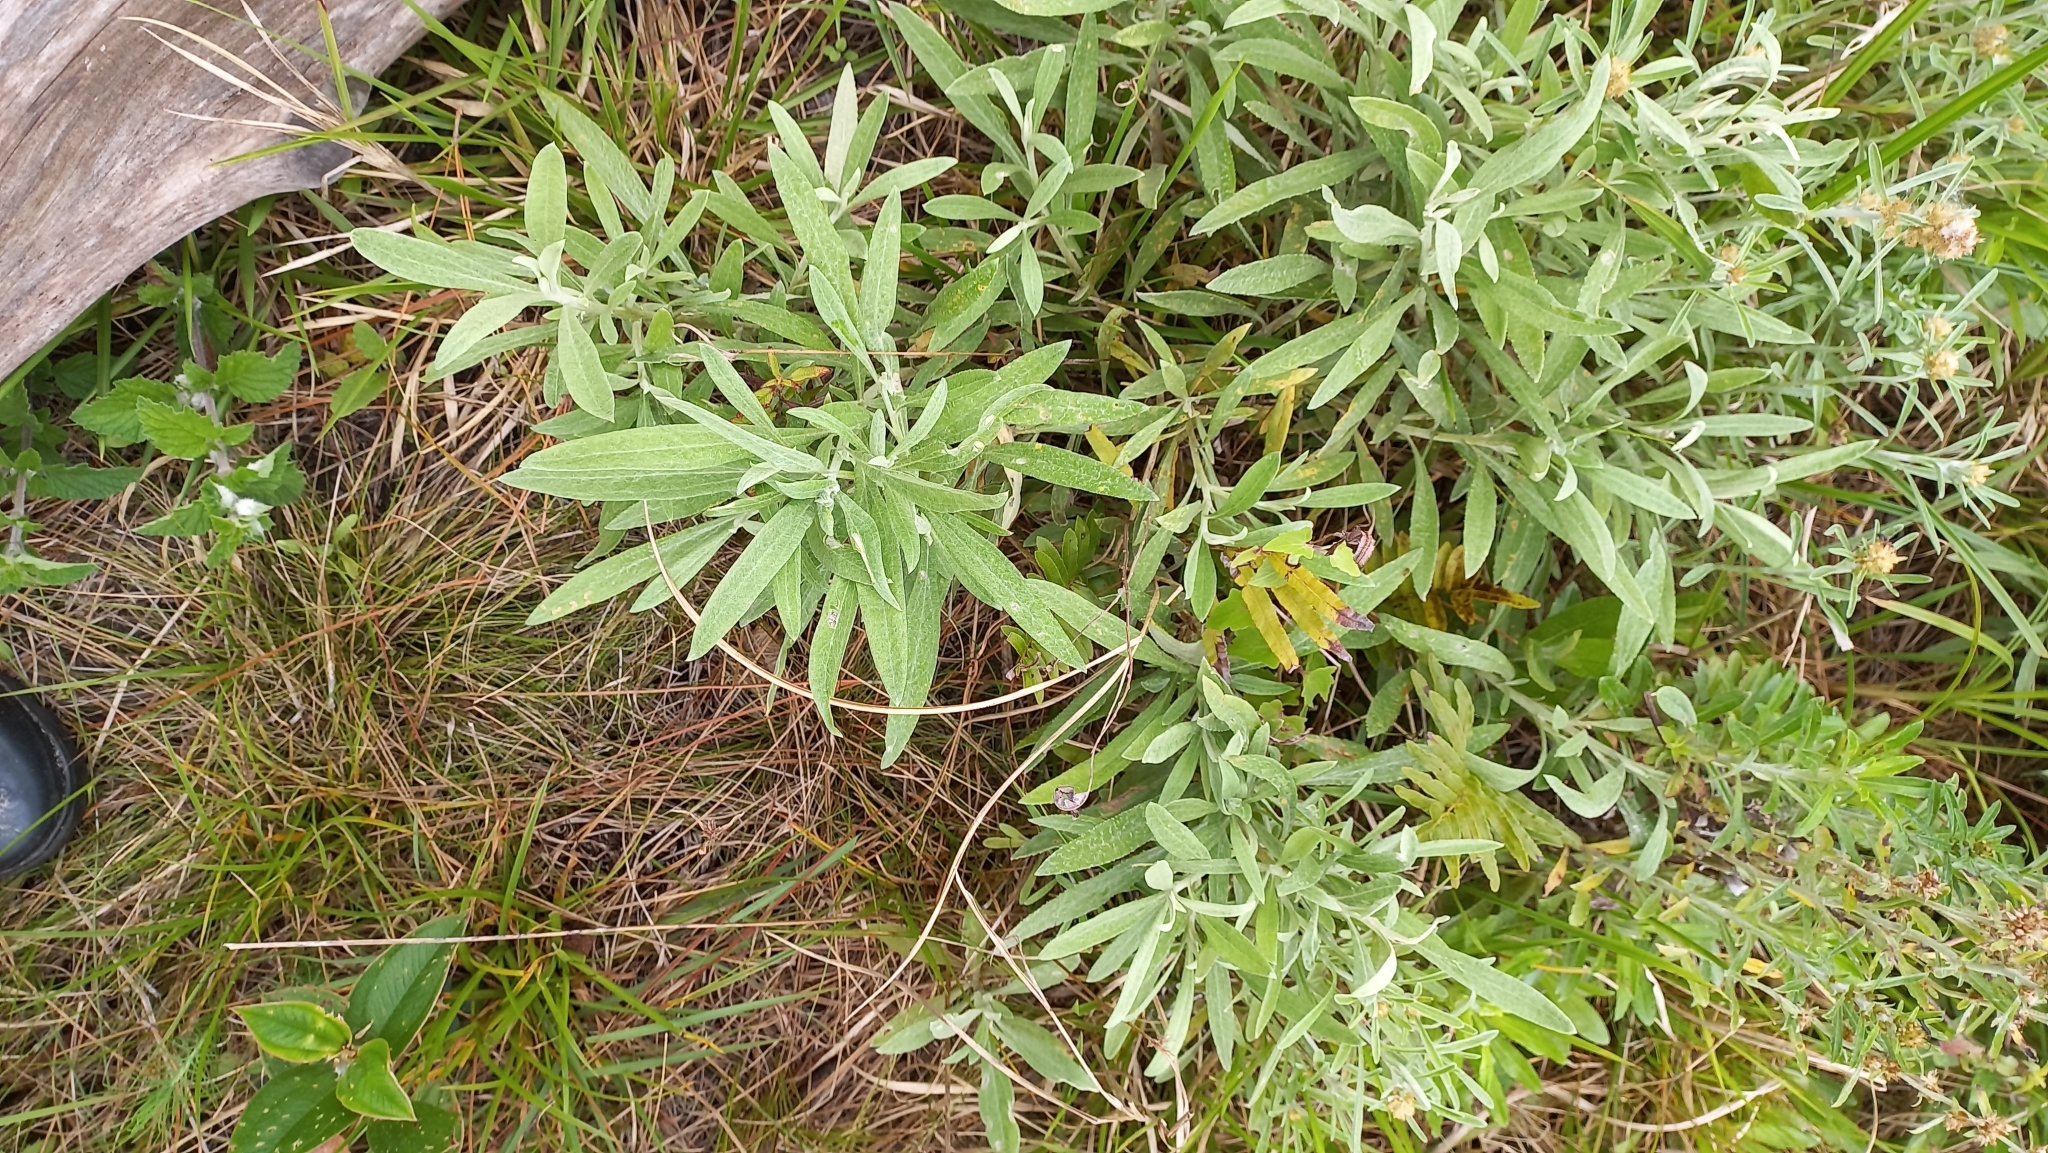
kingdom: Plantae
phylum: Tracheophyta
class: Magnoliopsida
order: Asterales
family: Asteraceae
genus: Achyrocline
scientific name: Achyrocline flaccida
